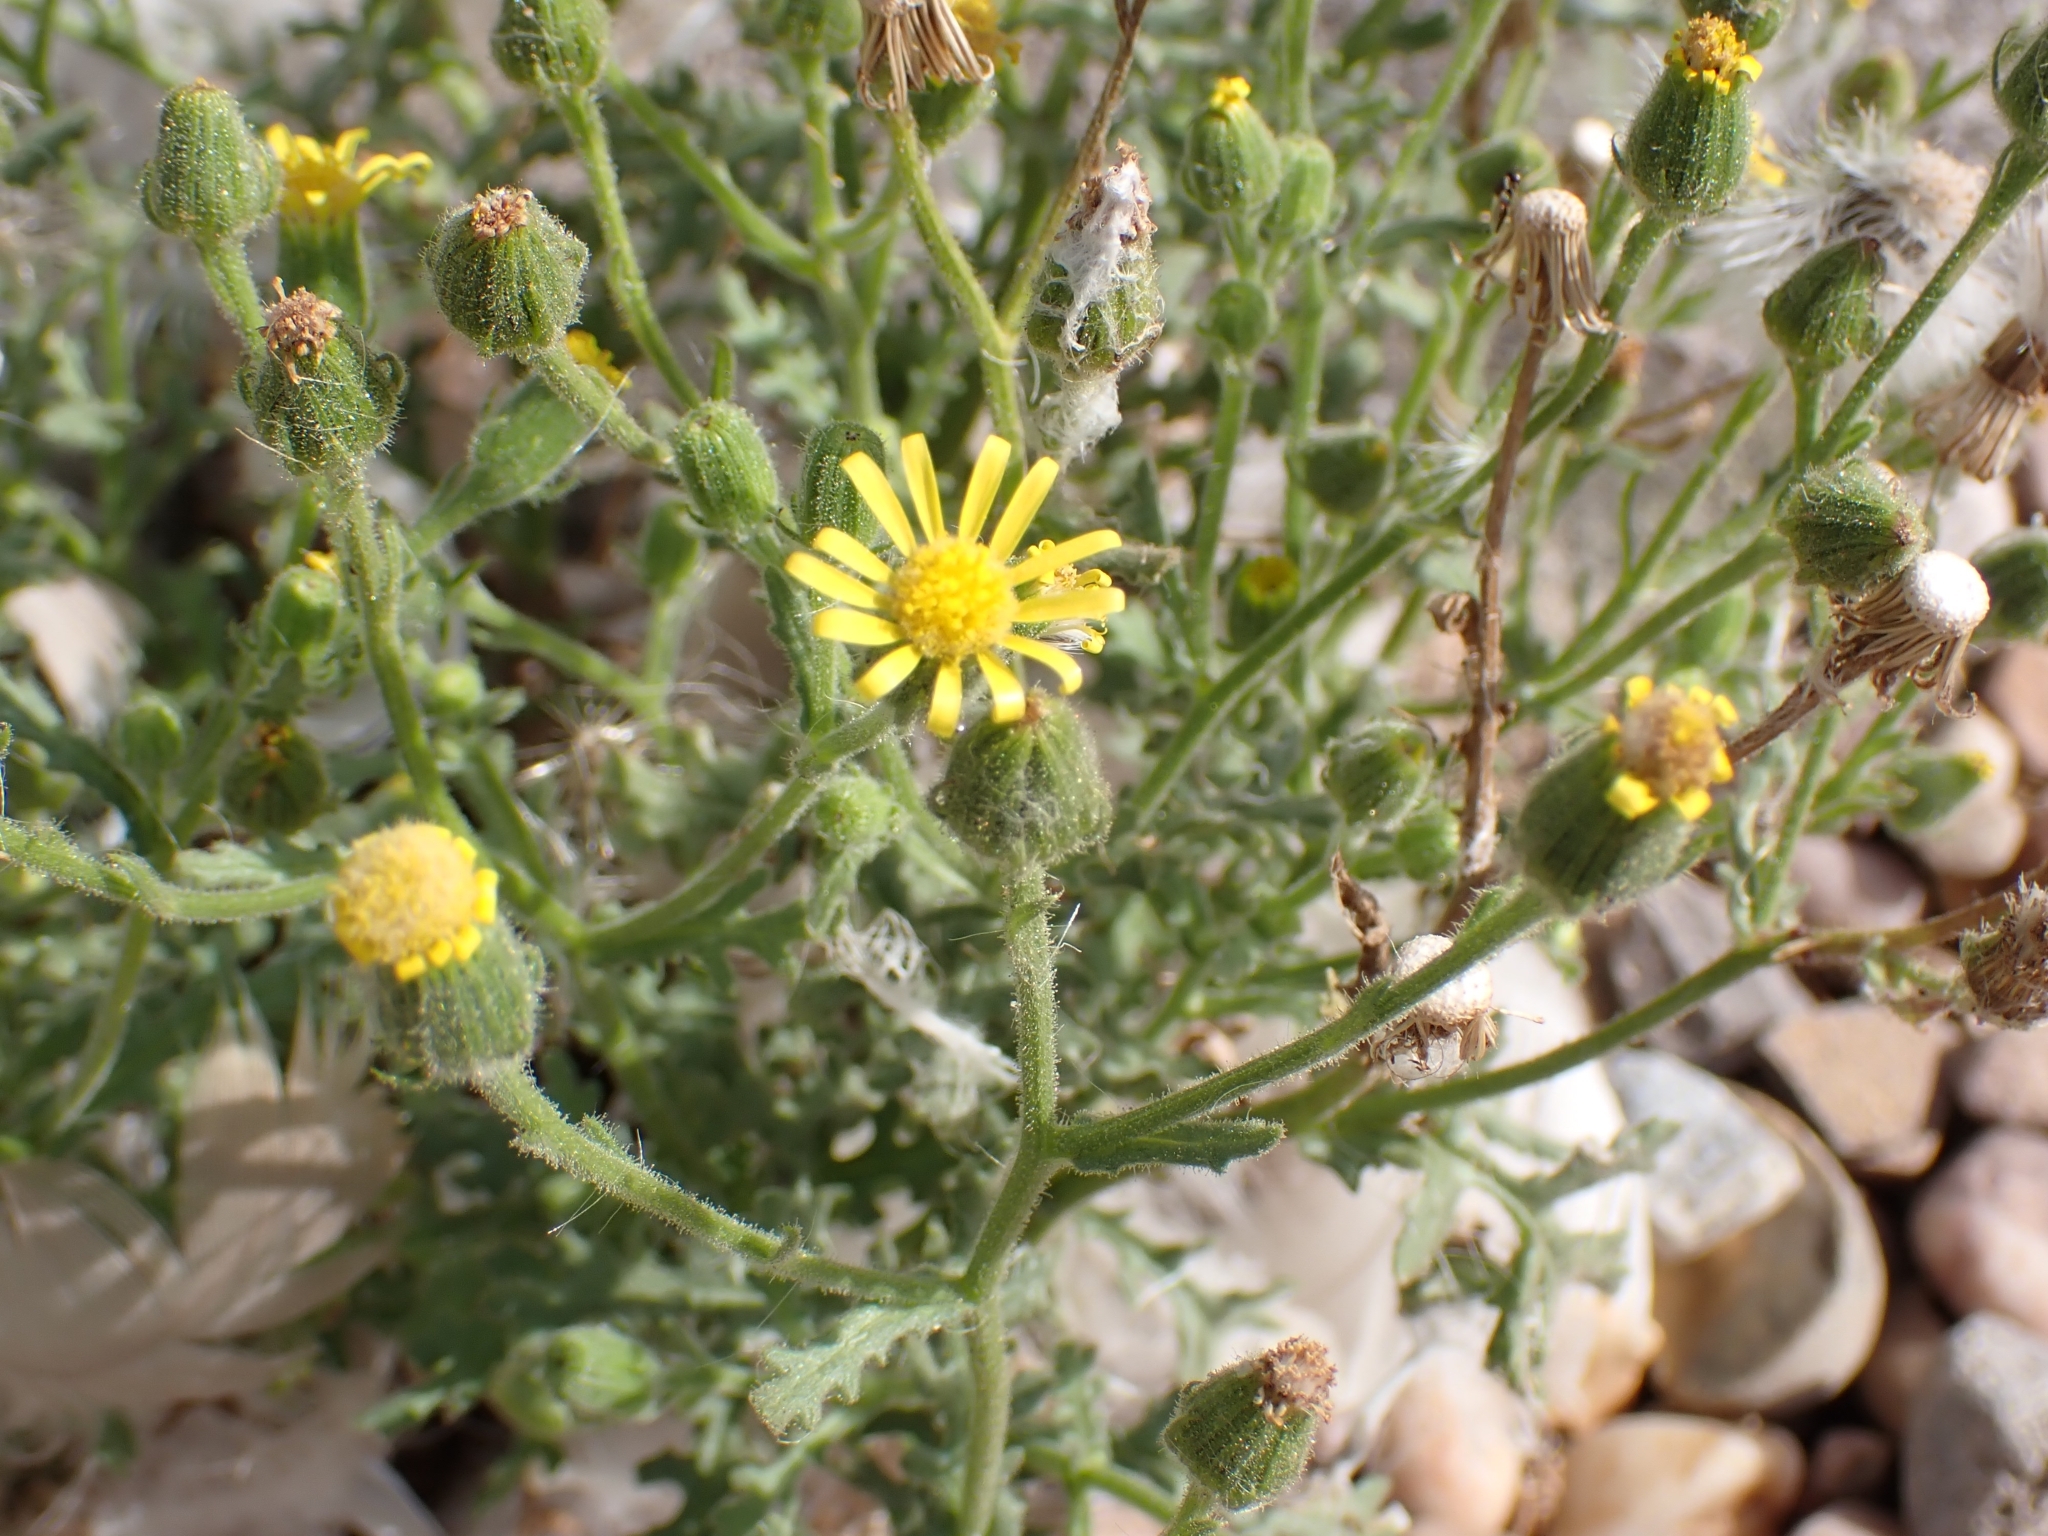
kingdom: Plantae
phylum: Tracheophyta
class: Magnoliopsida
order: Asterales
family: Asteraceae
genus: Senecio
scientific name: Senecio viscosus
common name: Sticky groundsel
